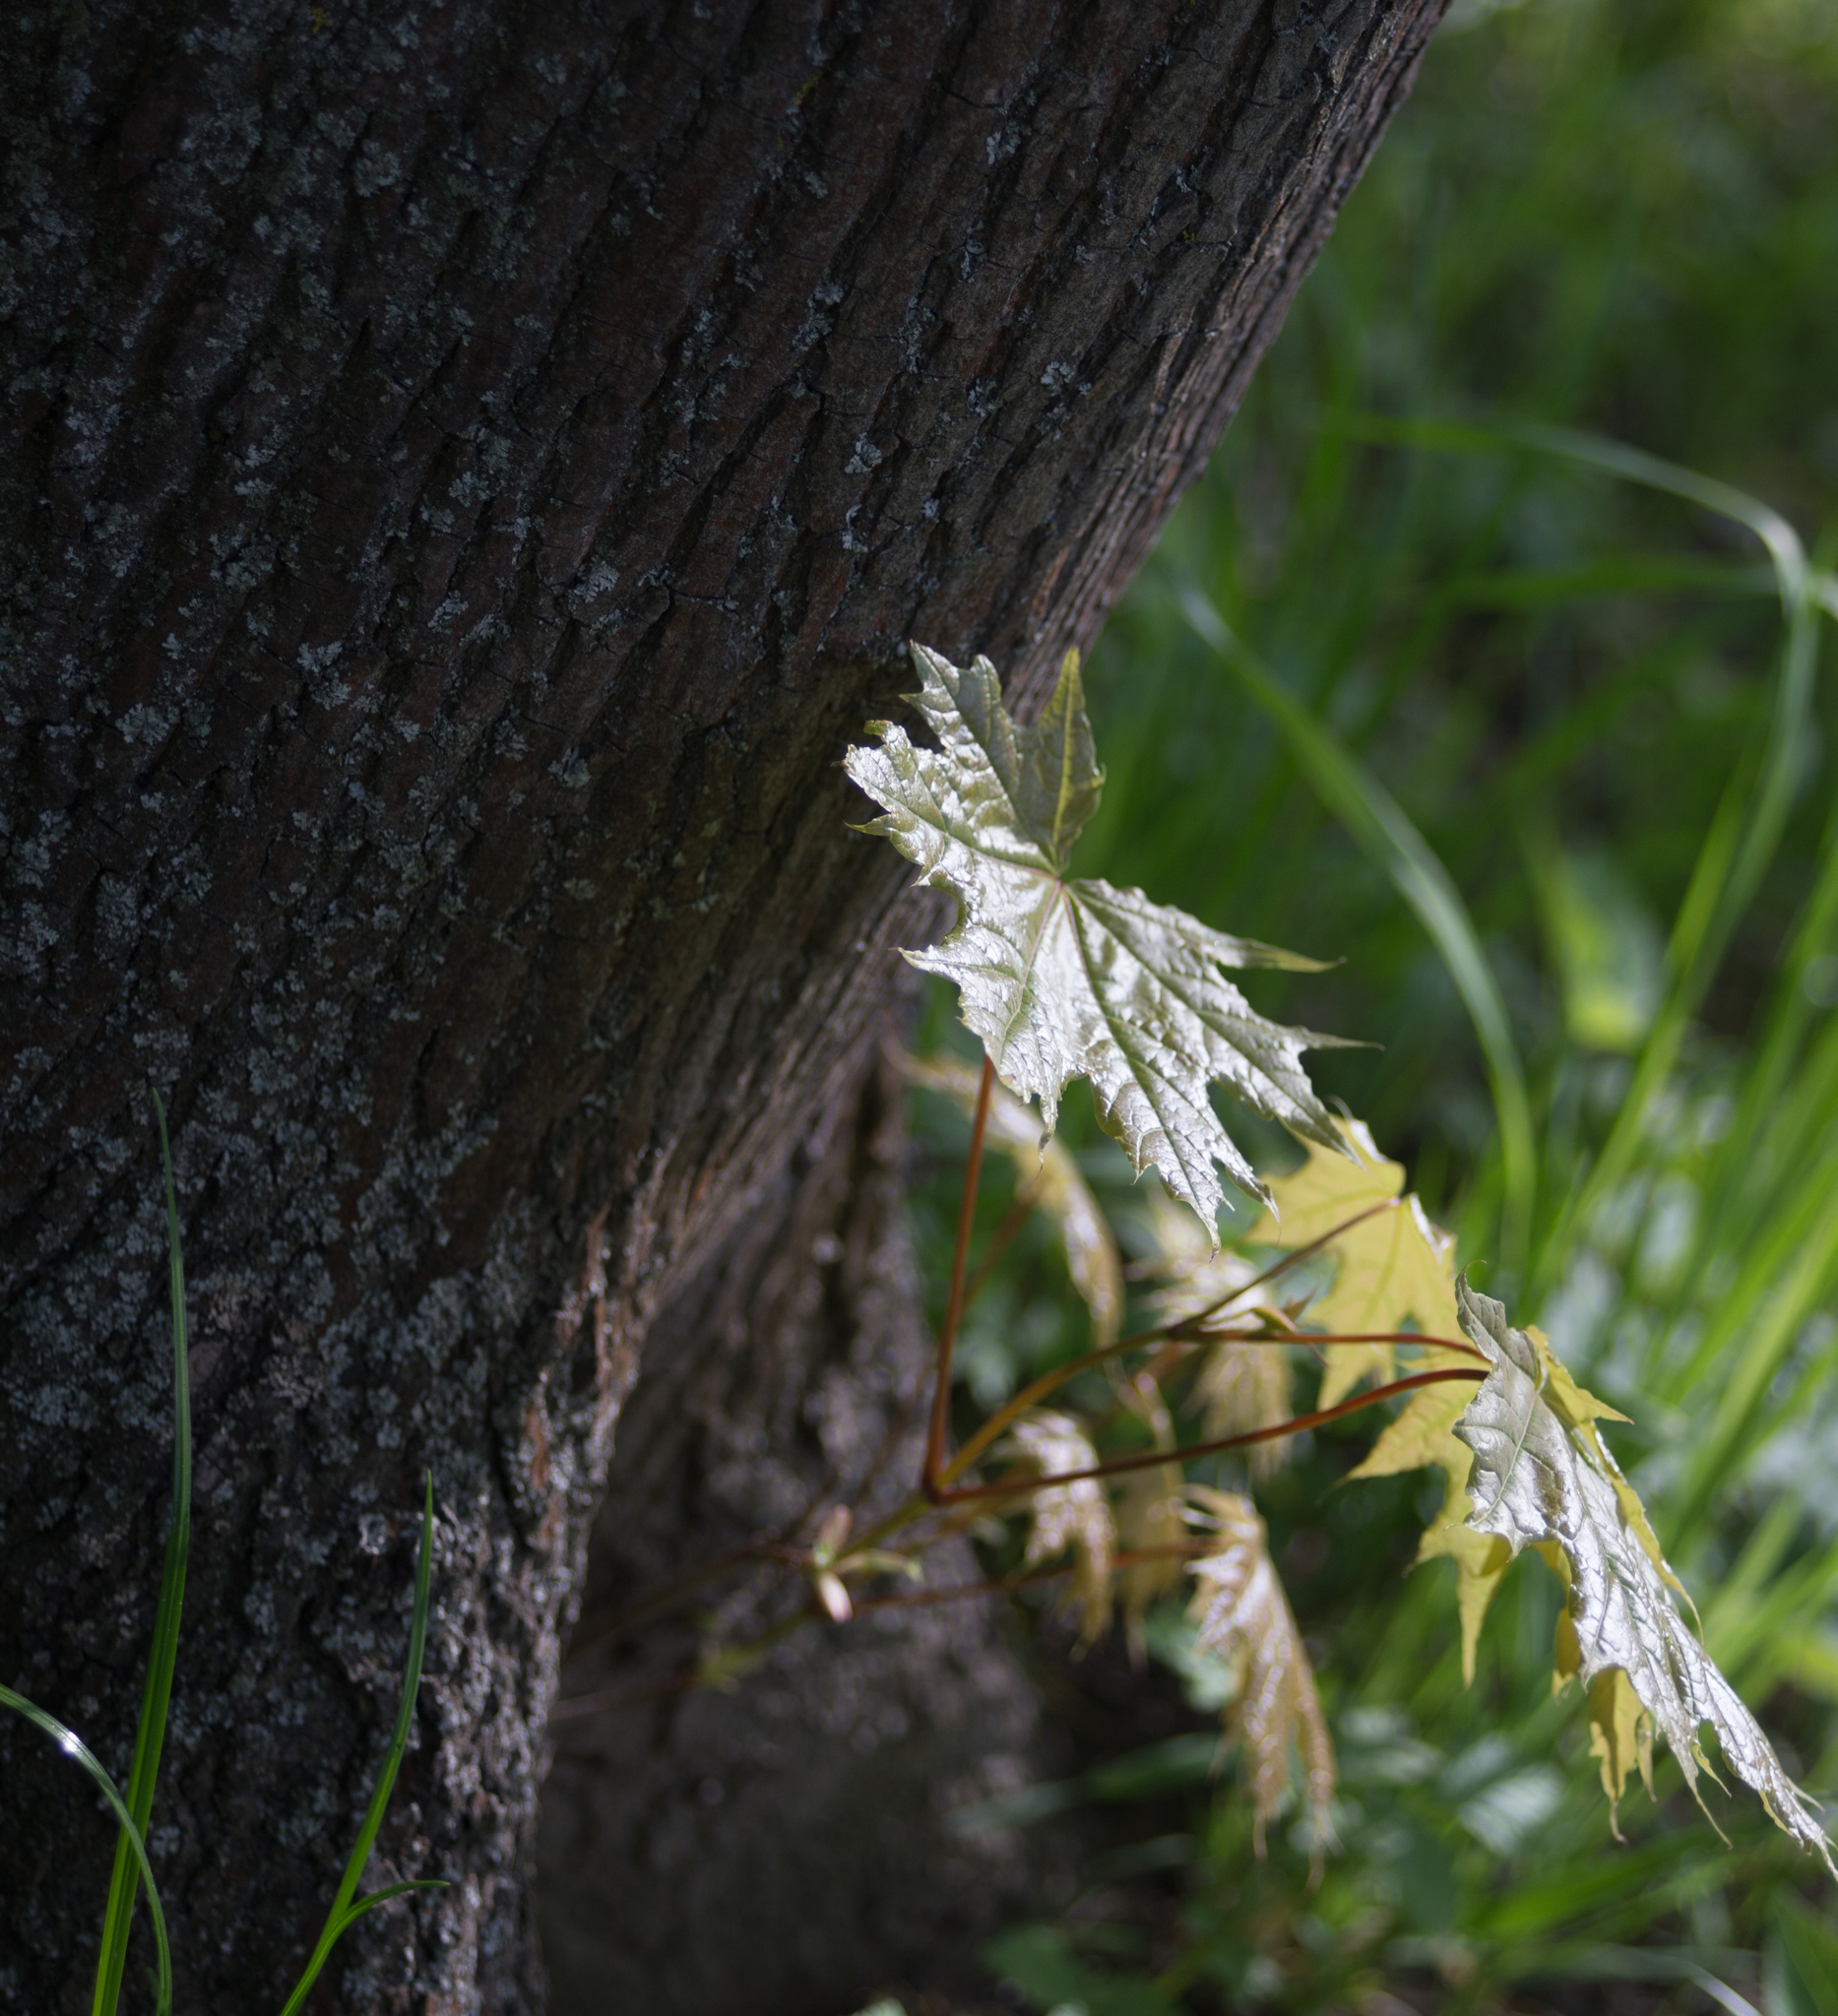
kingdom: Plantae
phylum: Tracheophyta
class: Magnoliopsida
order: Sapindales
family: Sapindaceae
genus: Acer
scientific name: Acer platanoides
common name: Norway maple
